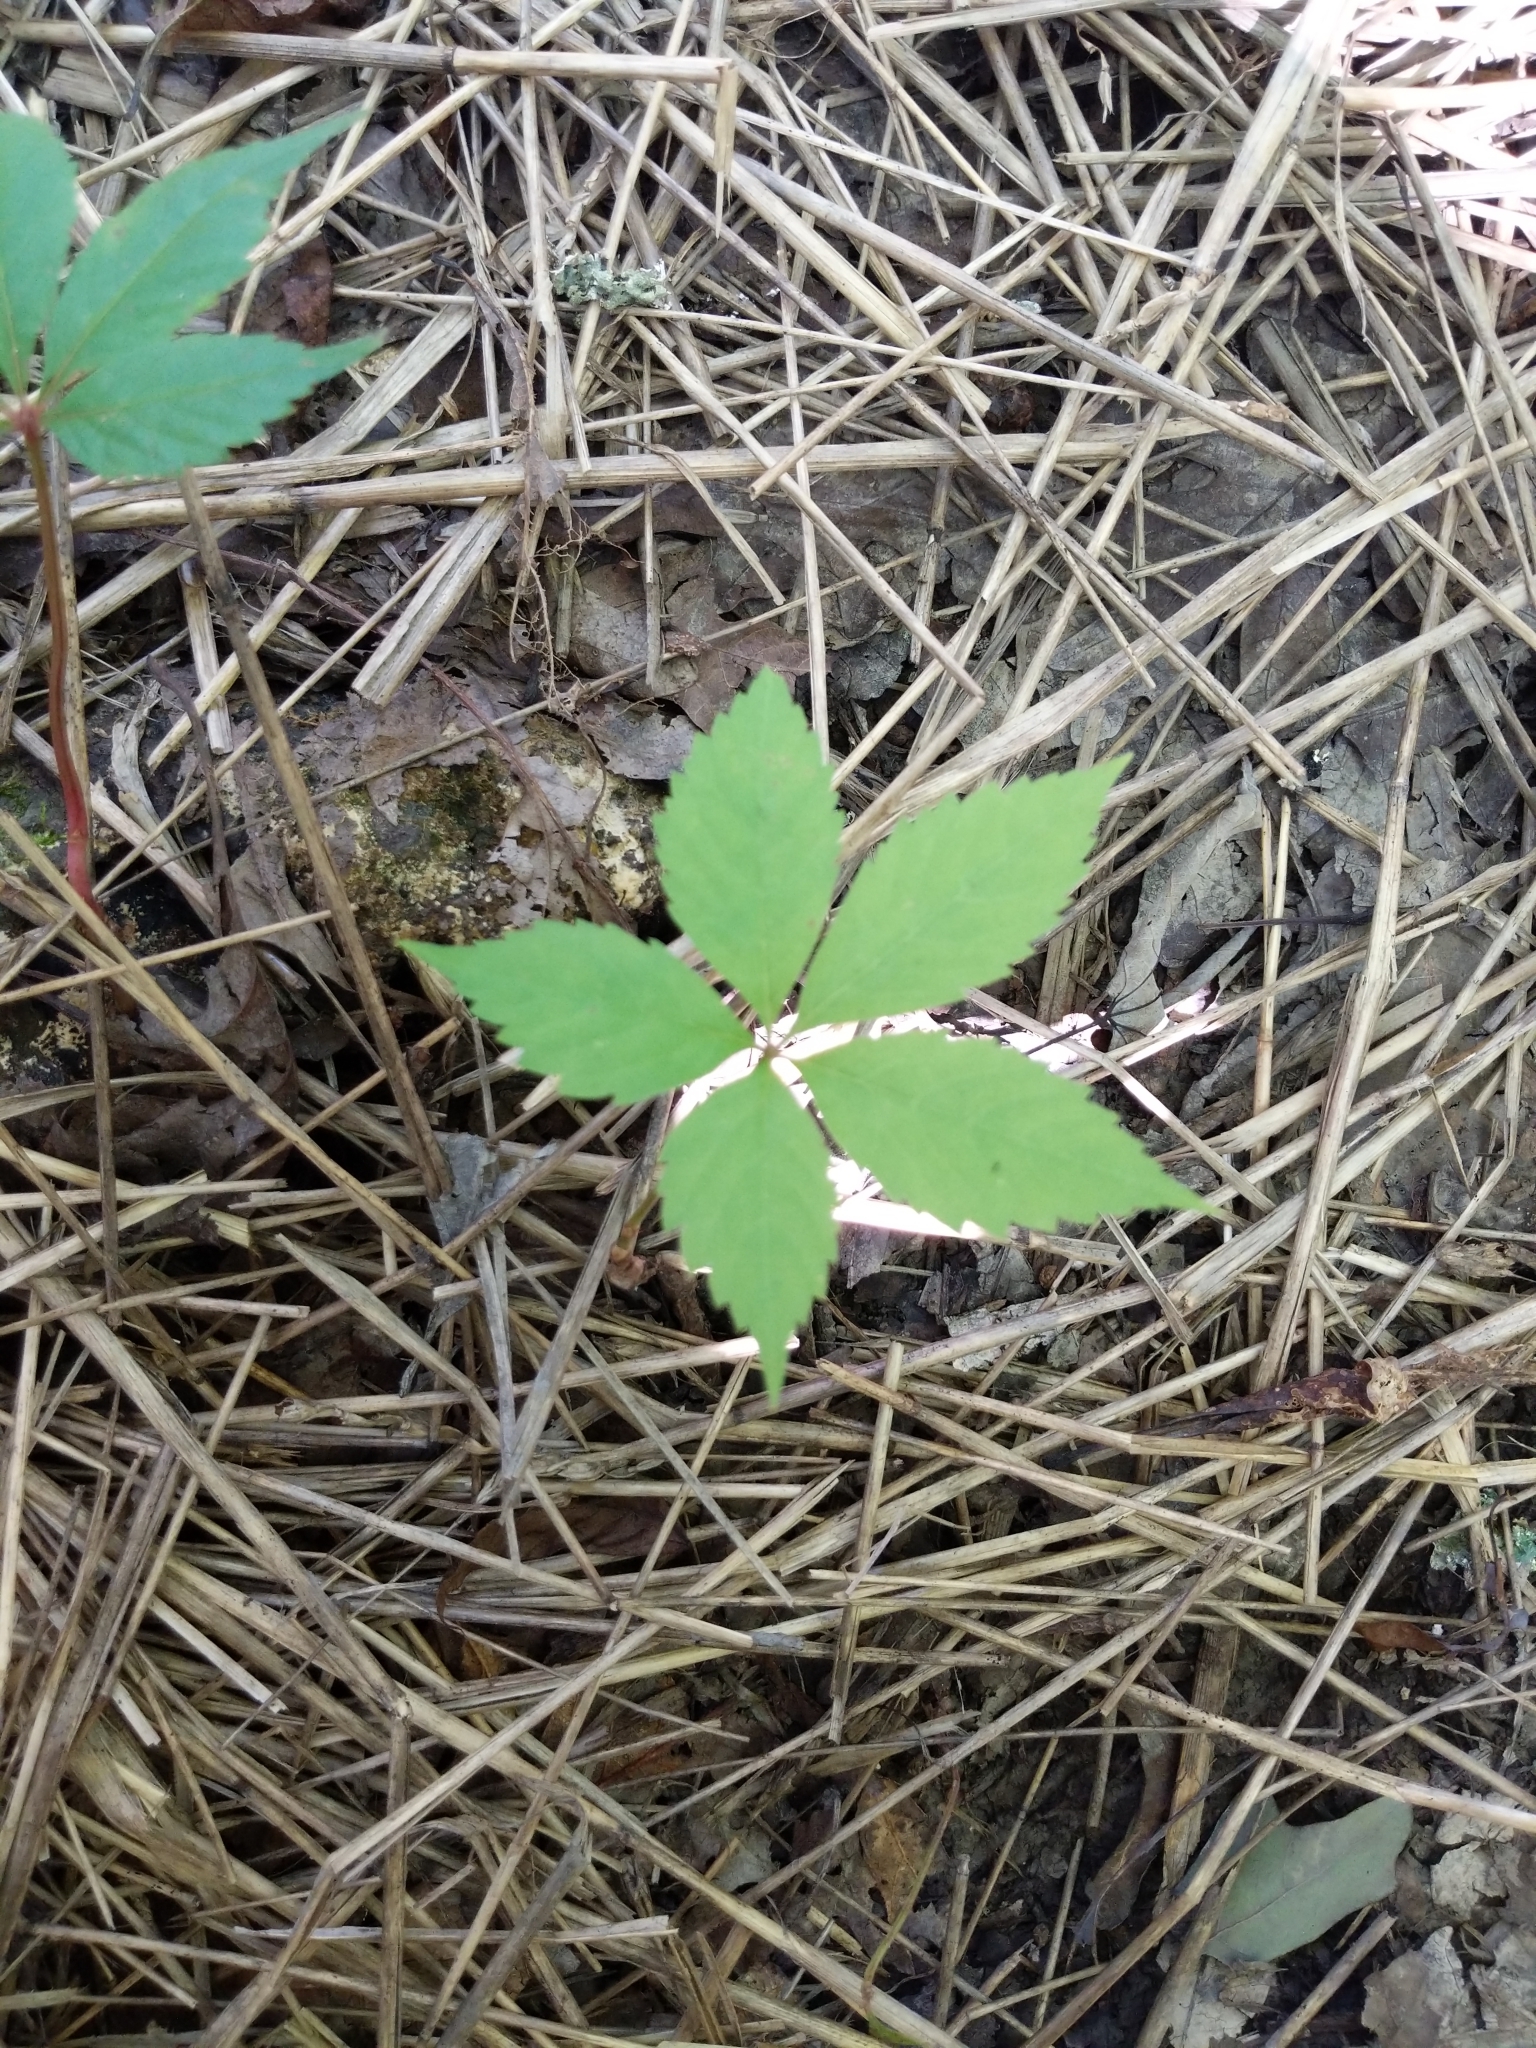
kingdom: Plantae
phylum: Tracheophyta
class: Magnoliopsida
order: Vitales
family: Vitaceae
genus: Parthenocissus
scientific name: Parthenocissus quinquefolia
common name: Virginia-creeper
